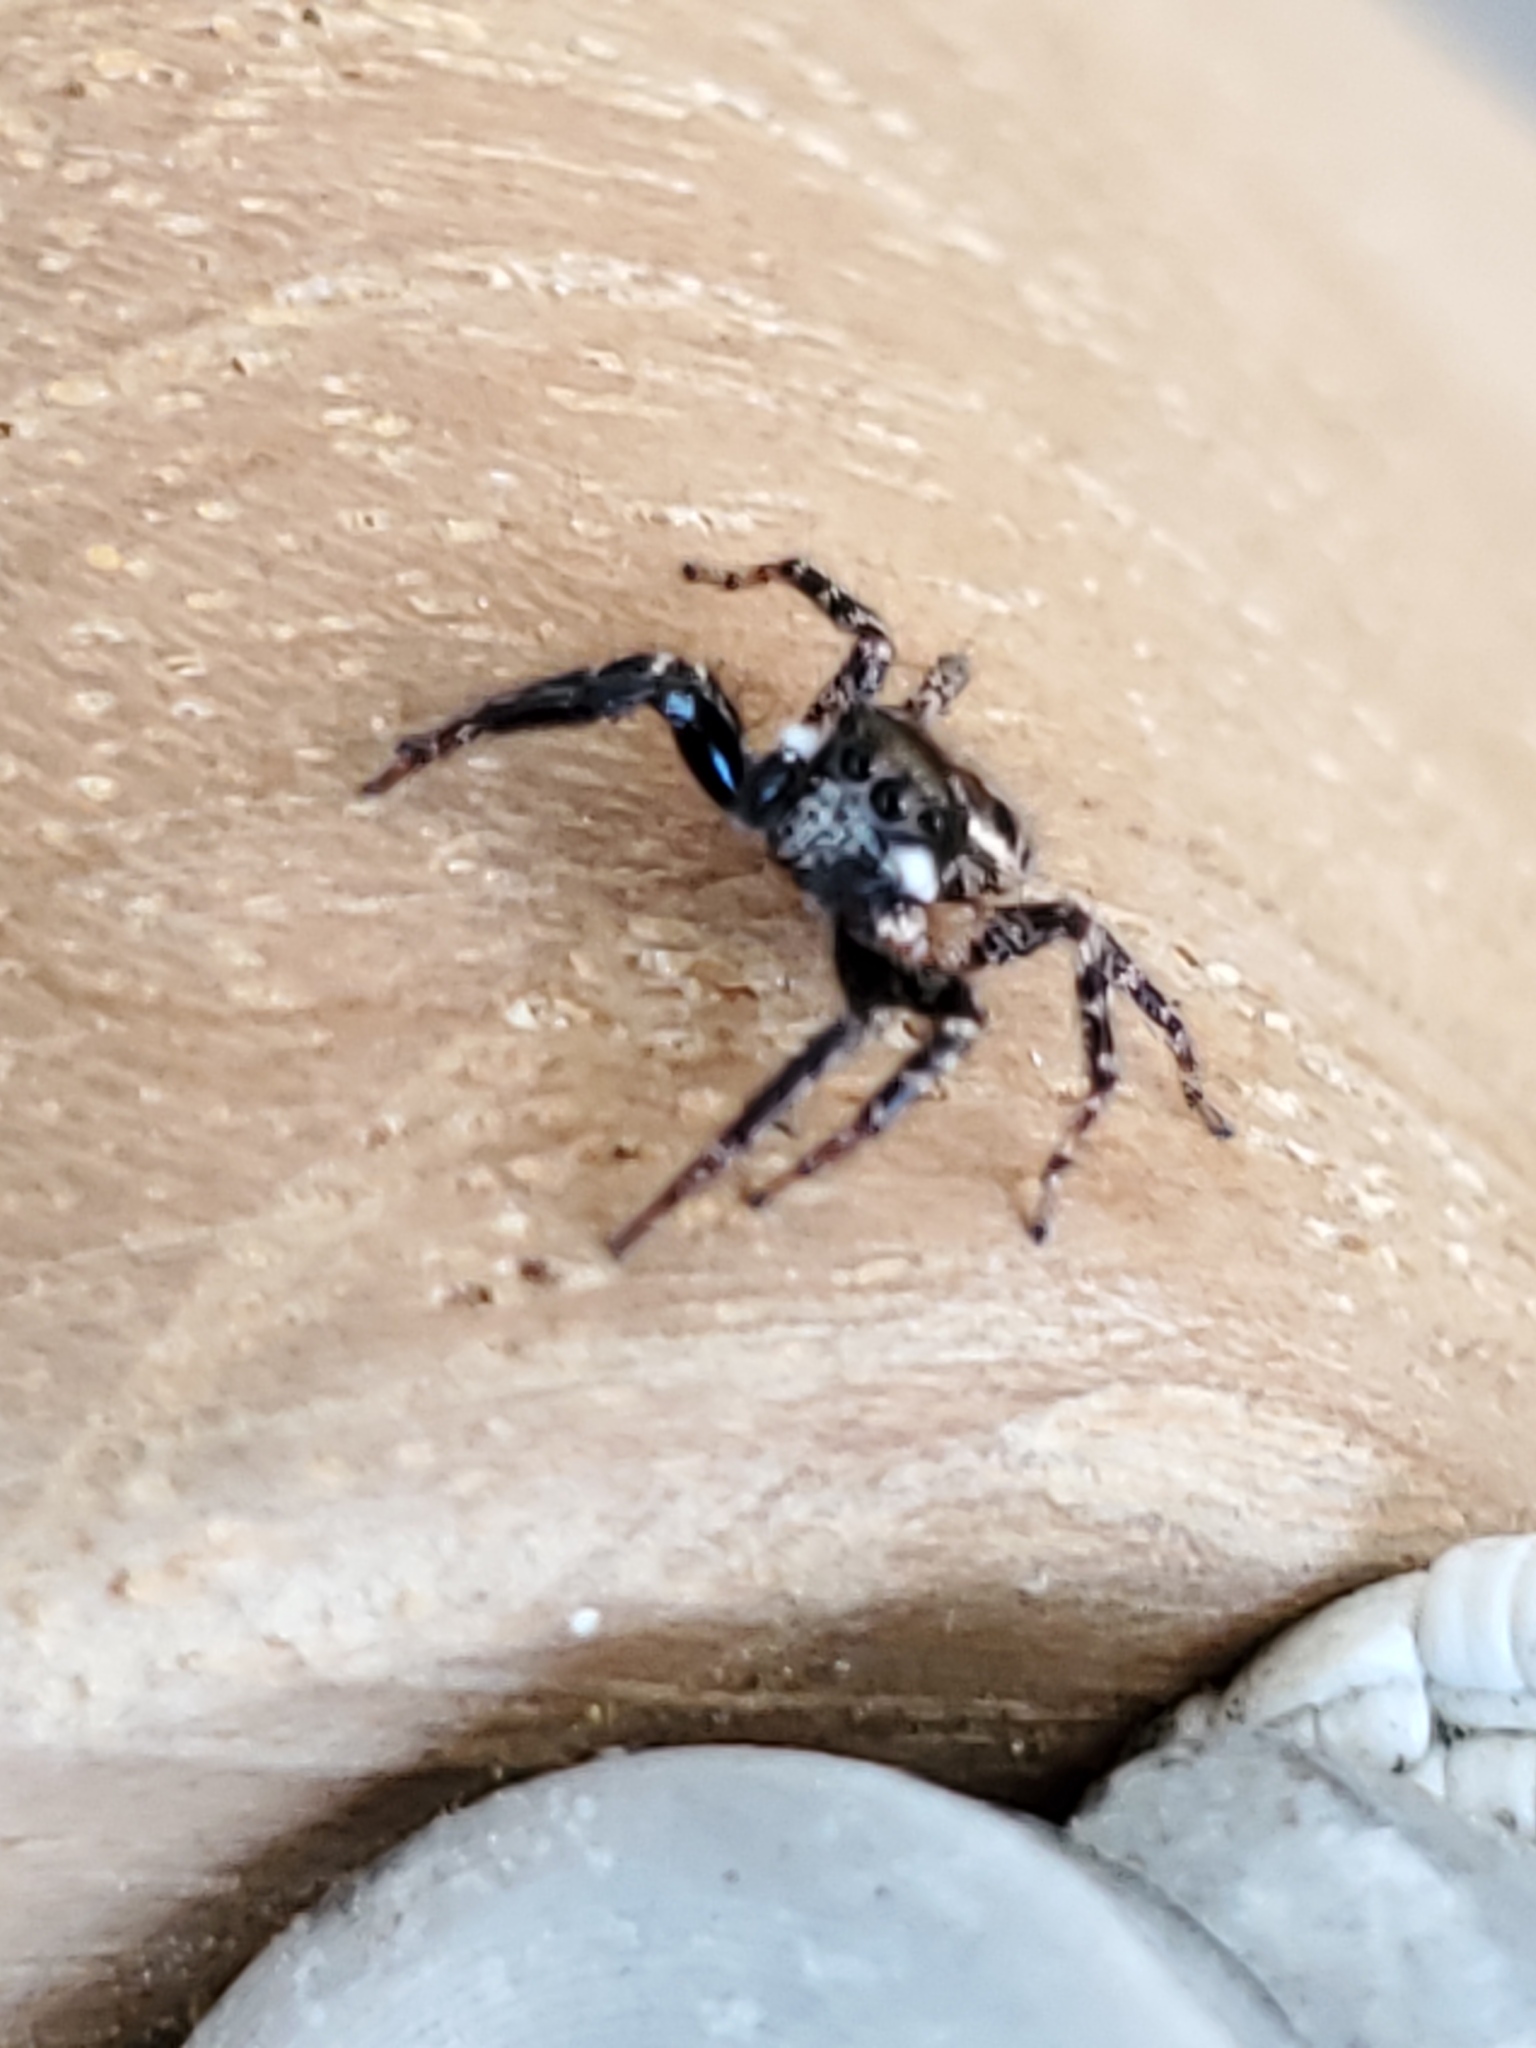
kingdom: Animalia
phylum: Arthropoda
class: Arachnida
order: Araneae
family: Salticidae
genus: Anasaitis
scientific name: Anasaitis canosa
